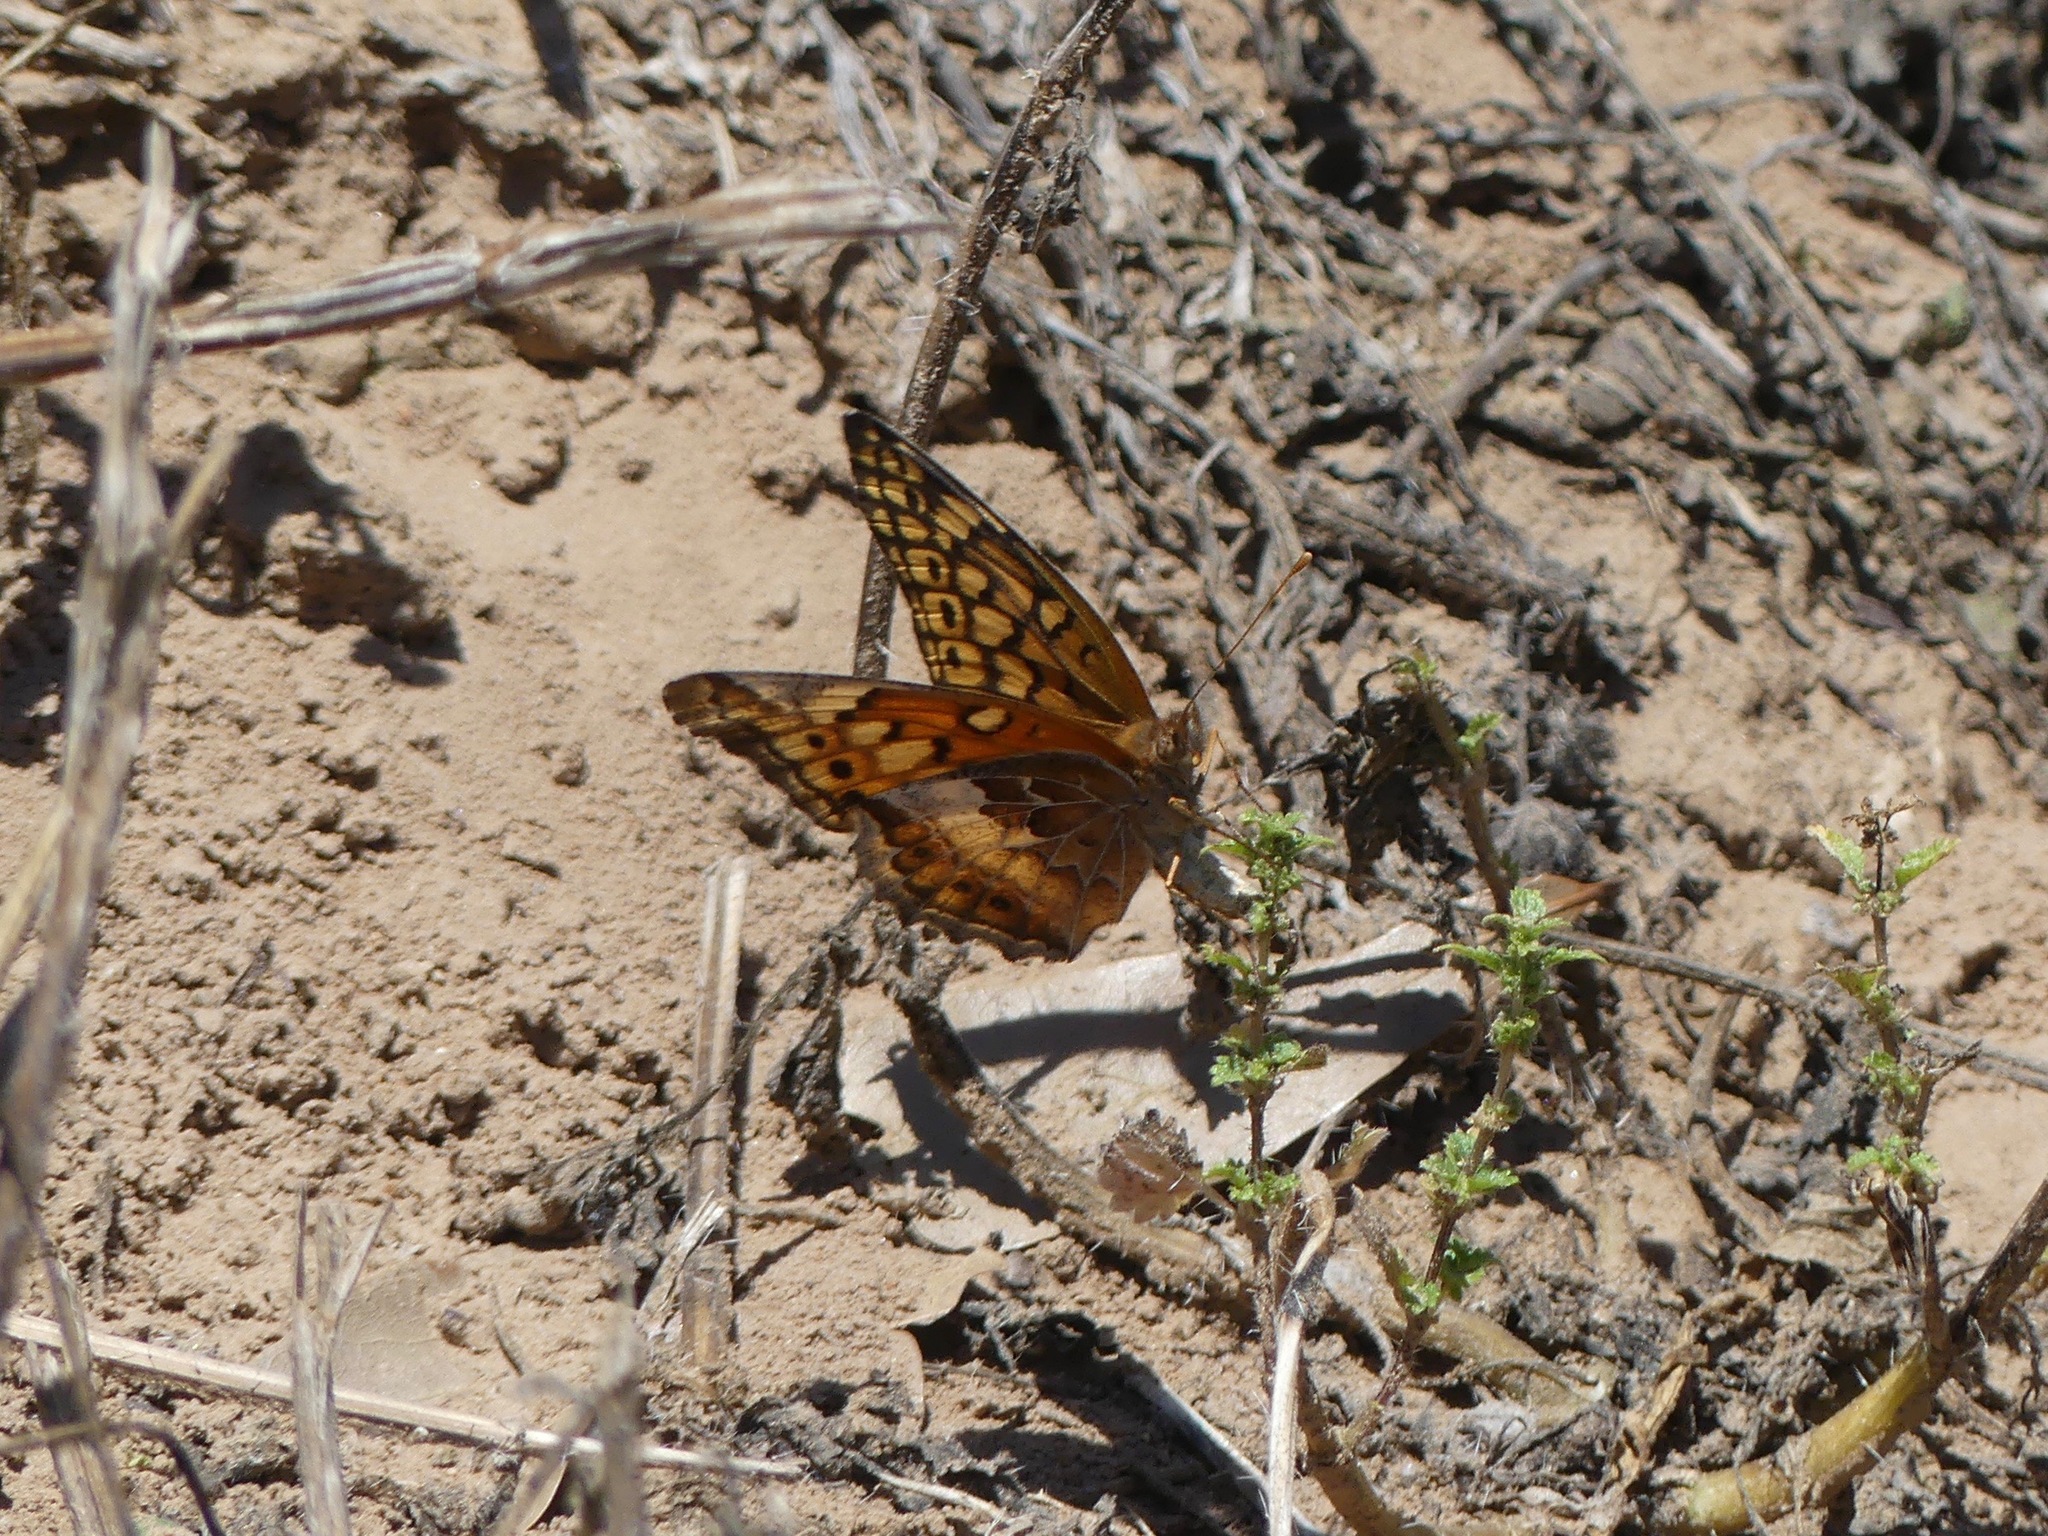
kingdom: Animalia
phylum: Arthropoda
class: Insecta
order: Lepidoptera
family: Nymphalidae
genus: Euptoieta
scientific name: Euptoieta claudia
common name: Variegated fritillary
